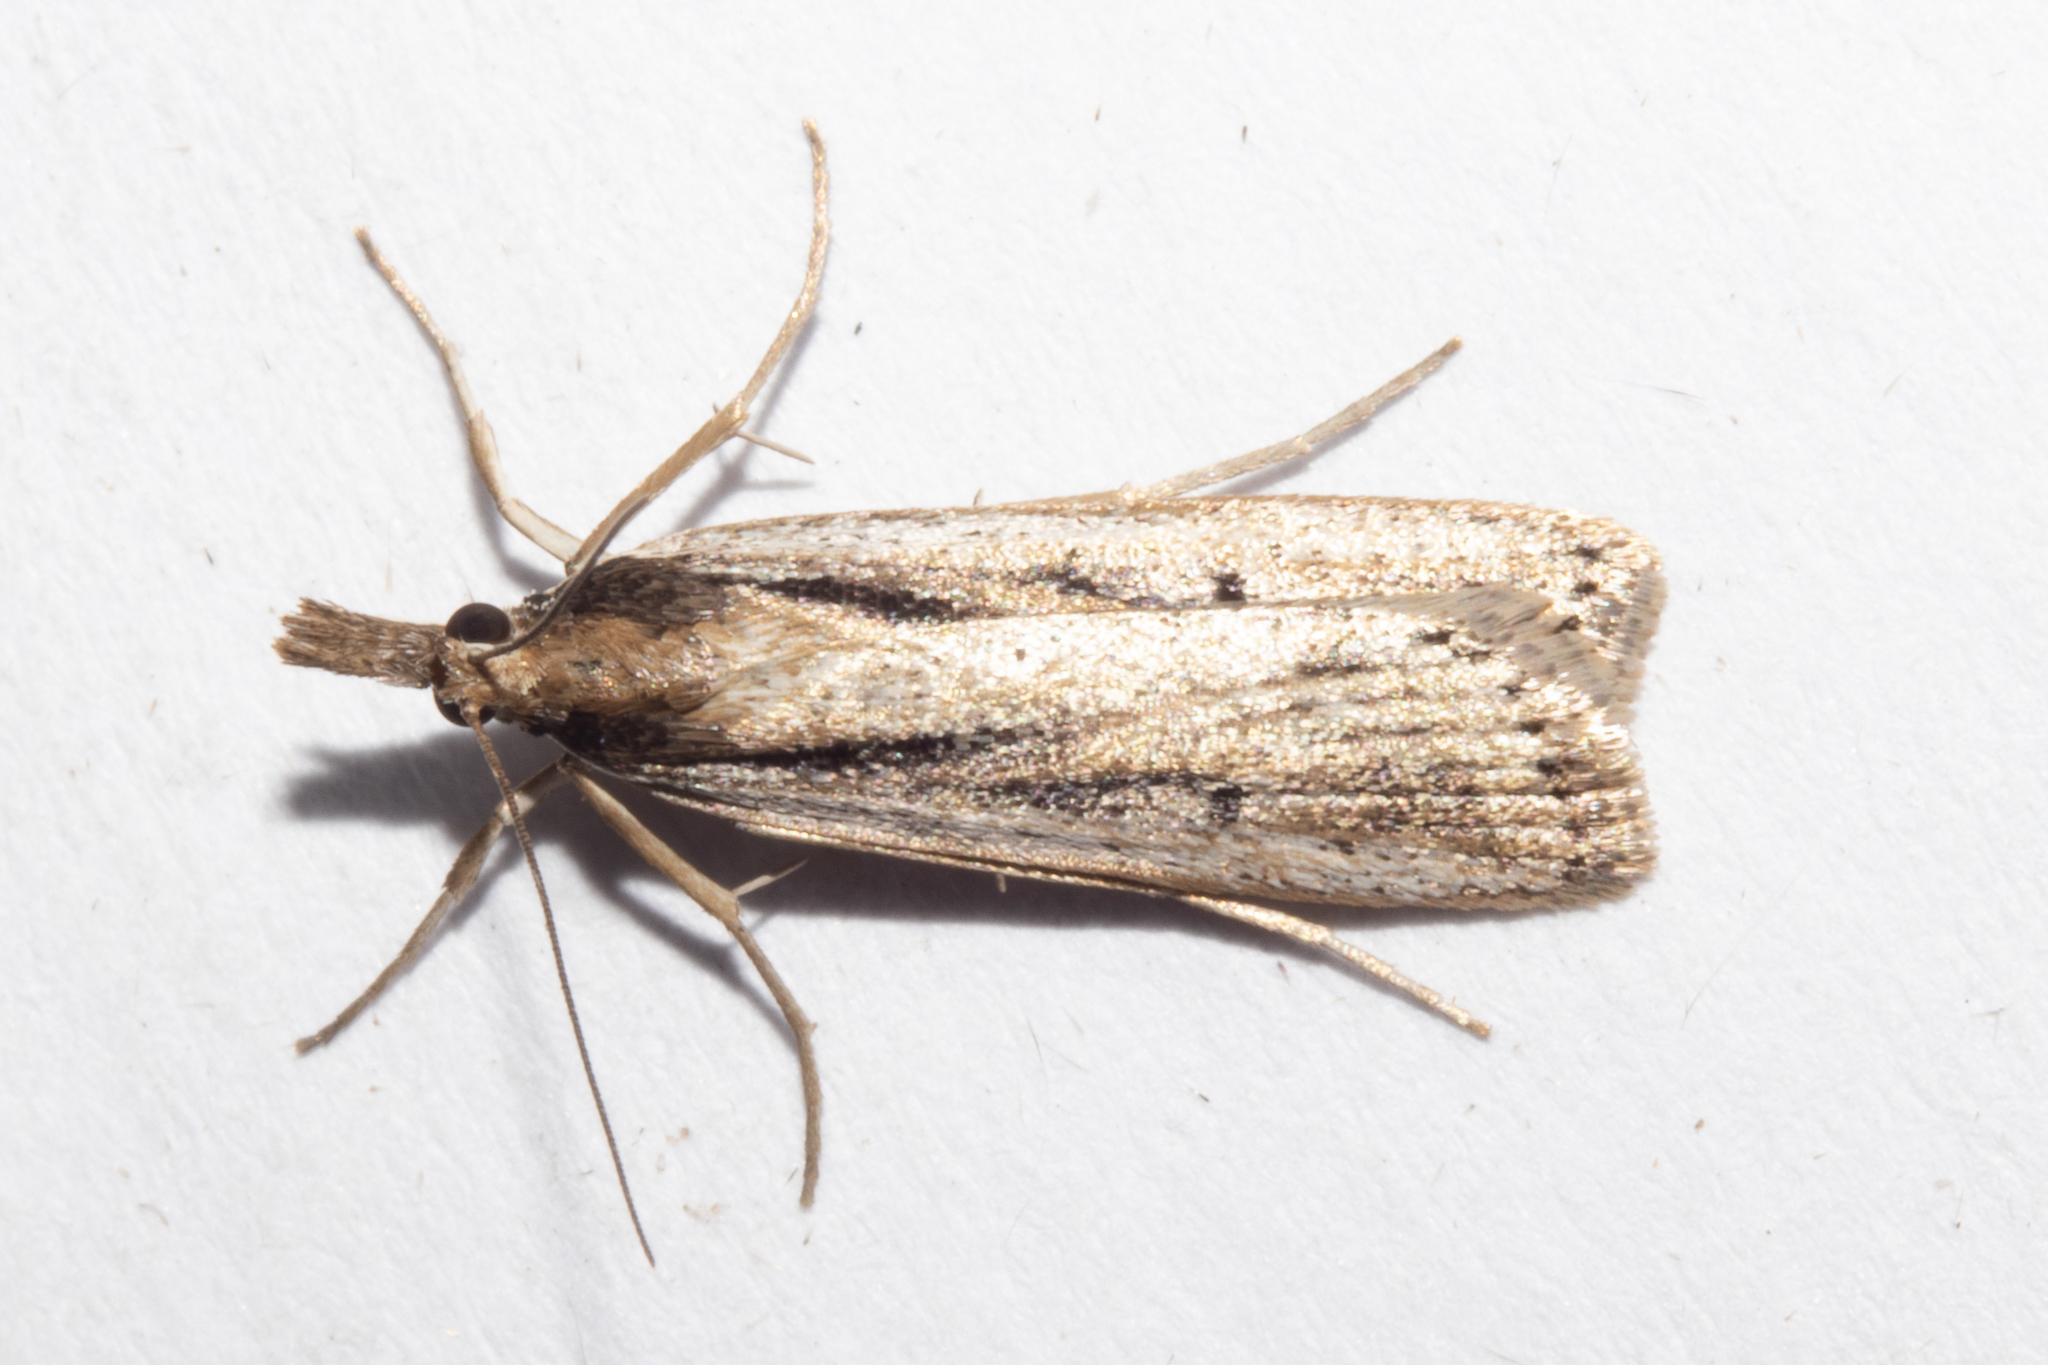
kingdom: Animalia
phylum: Arthropoda
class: Insecta
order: Lepidoptera
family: Crambidae
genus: Eudonia
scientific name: Eudonia sabulosella
